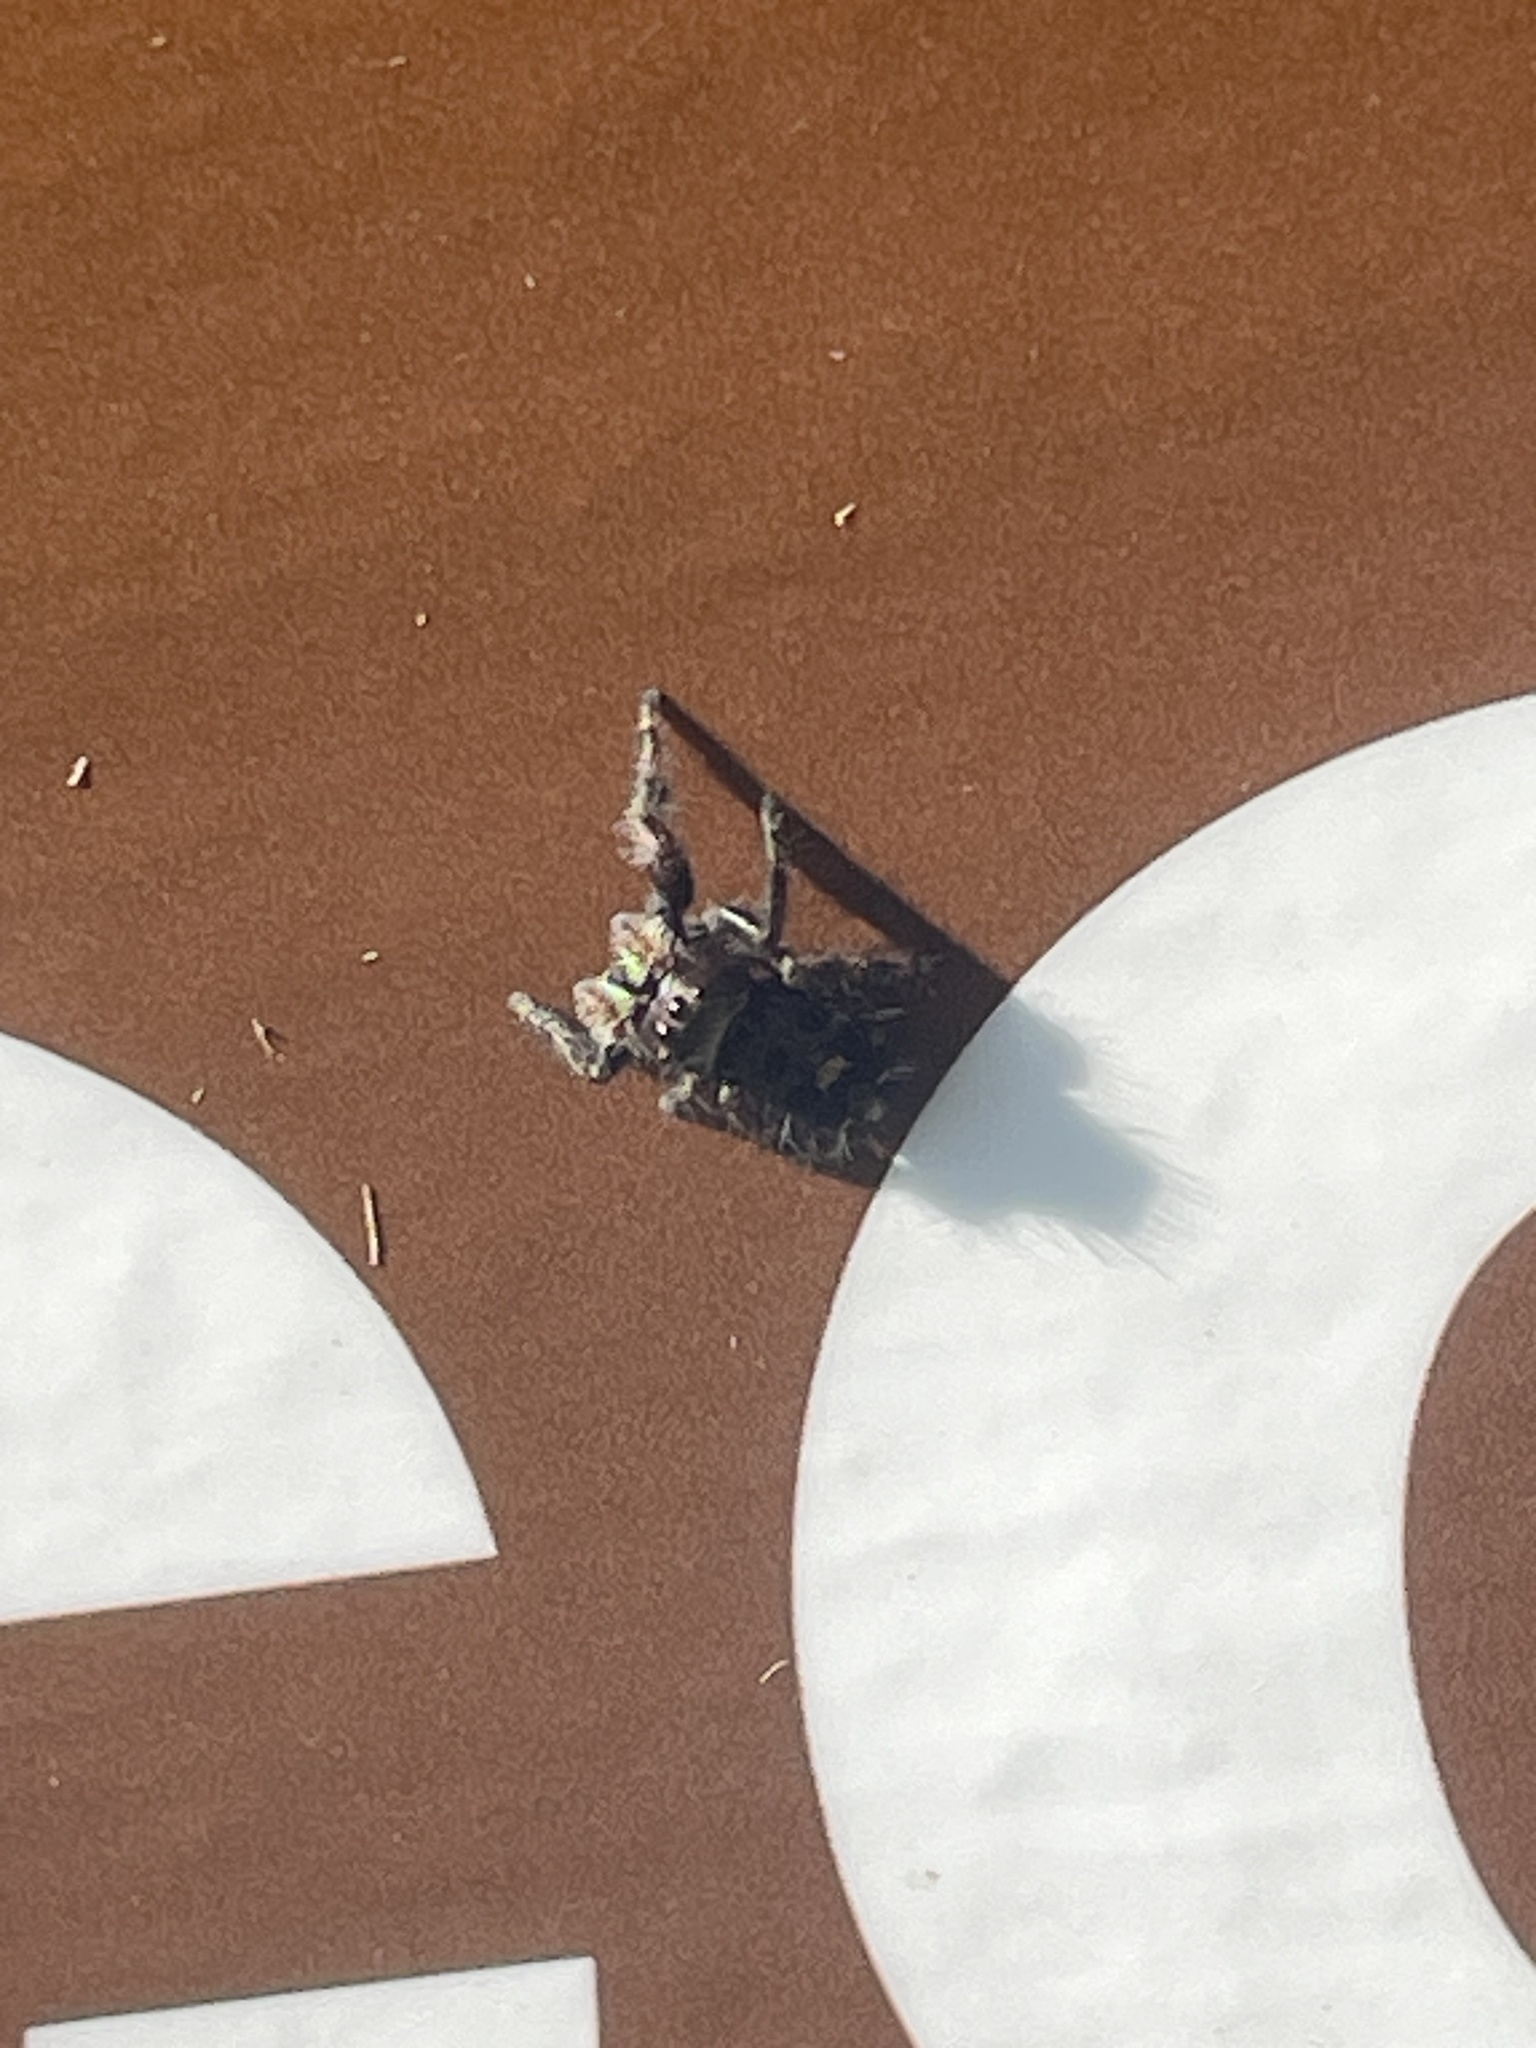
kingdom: Animalia
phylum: Arthropoda
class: Arachnida
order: Araneae
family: Salticidae
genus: Phidippus
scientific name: Phidippus audax
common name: Bold jumper
